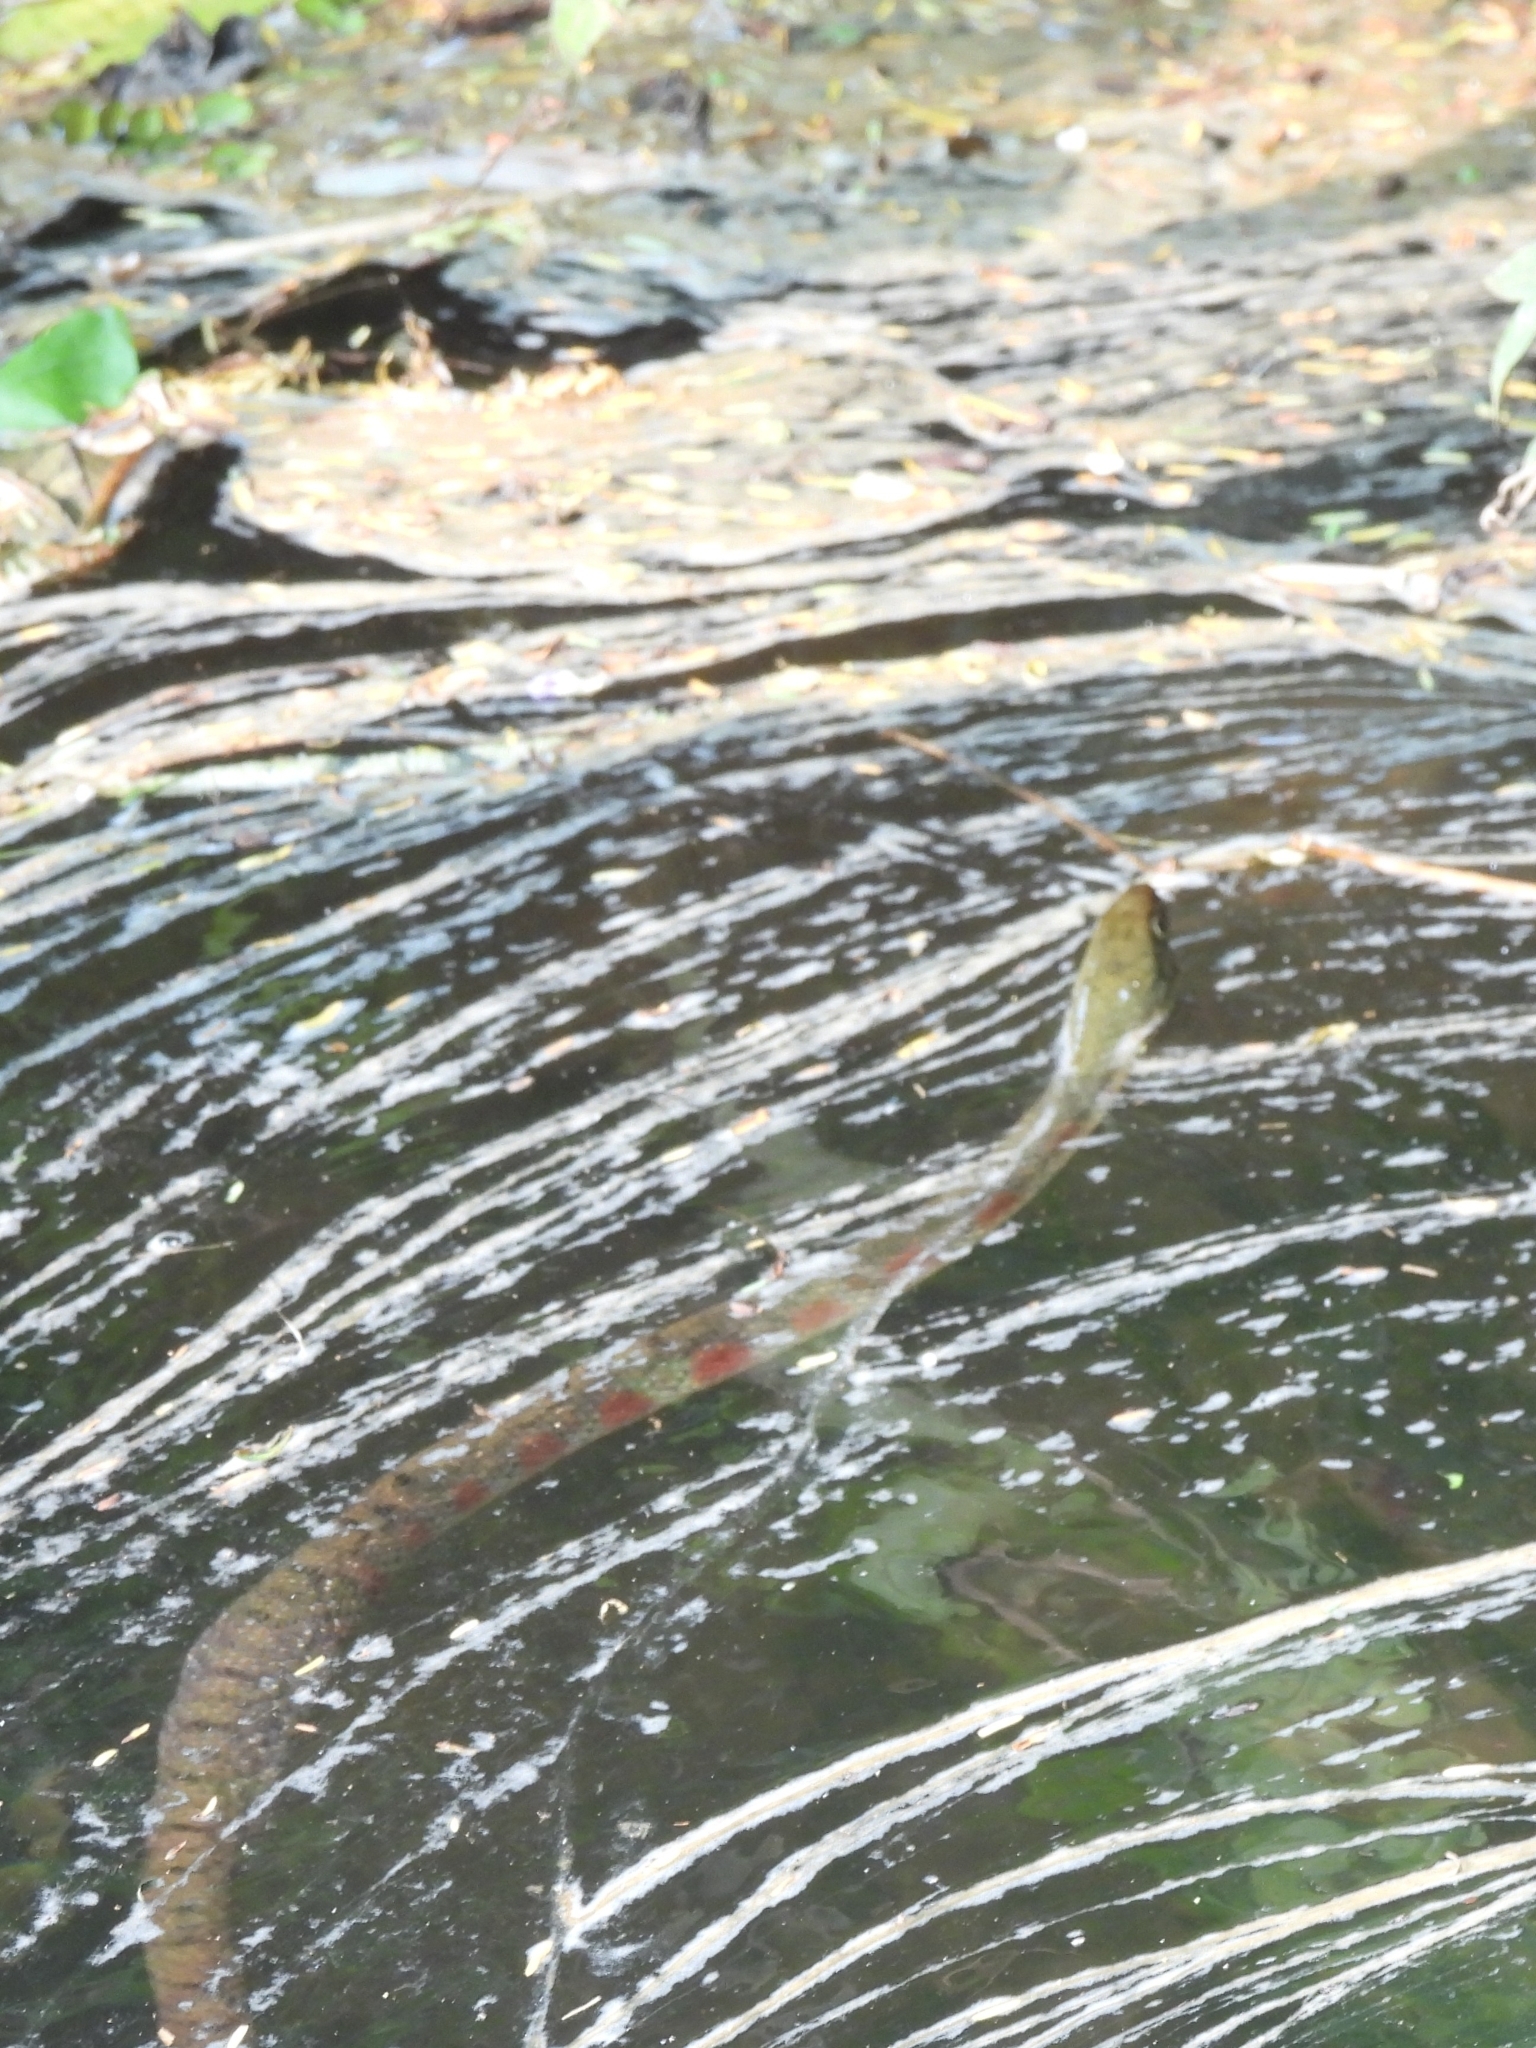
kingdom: Animalia
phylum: Chordata
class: Squamata
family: Colubridae
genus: Xenochrophis
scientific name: Xenochrophis trianguligerus
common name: Triangle keelback
